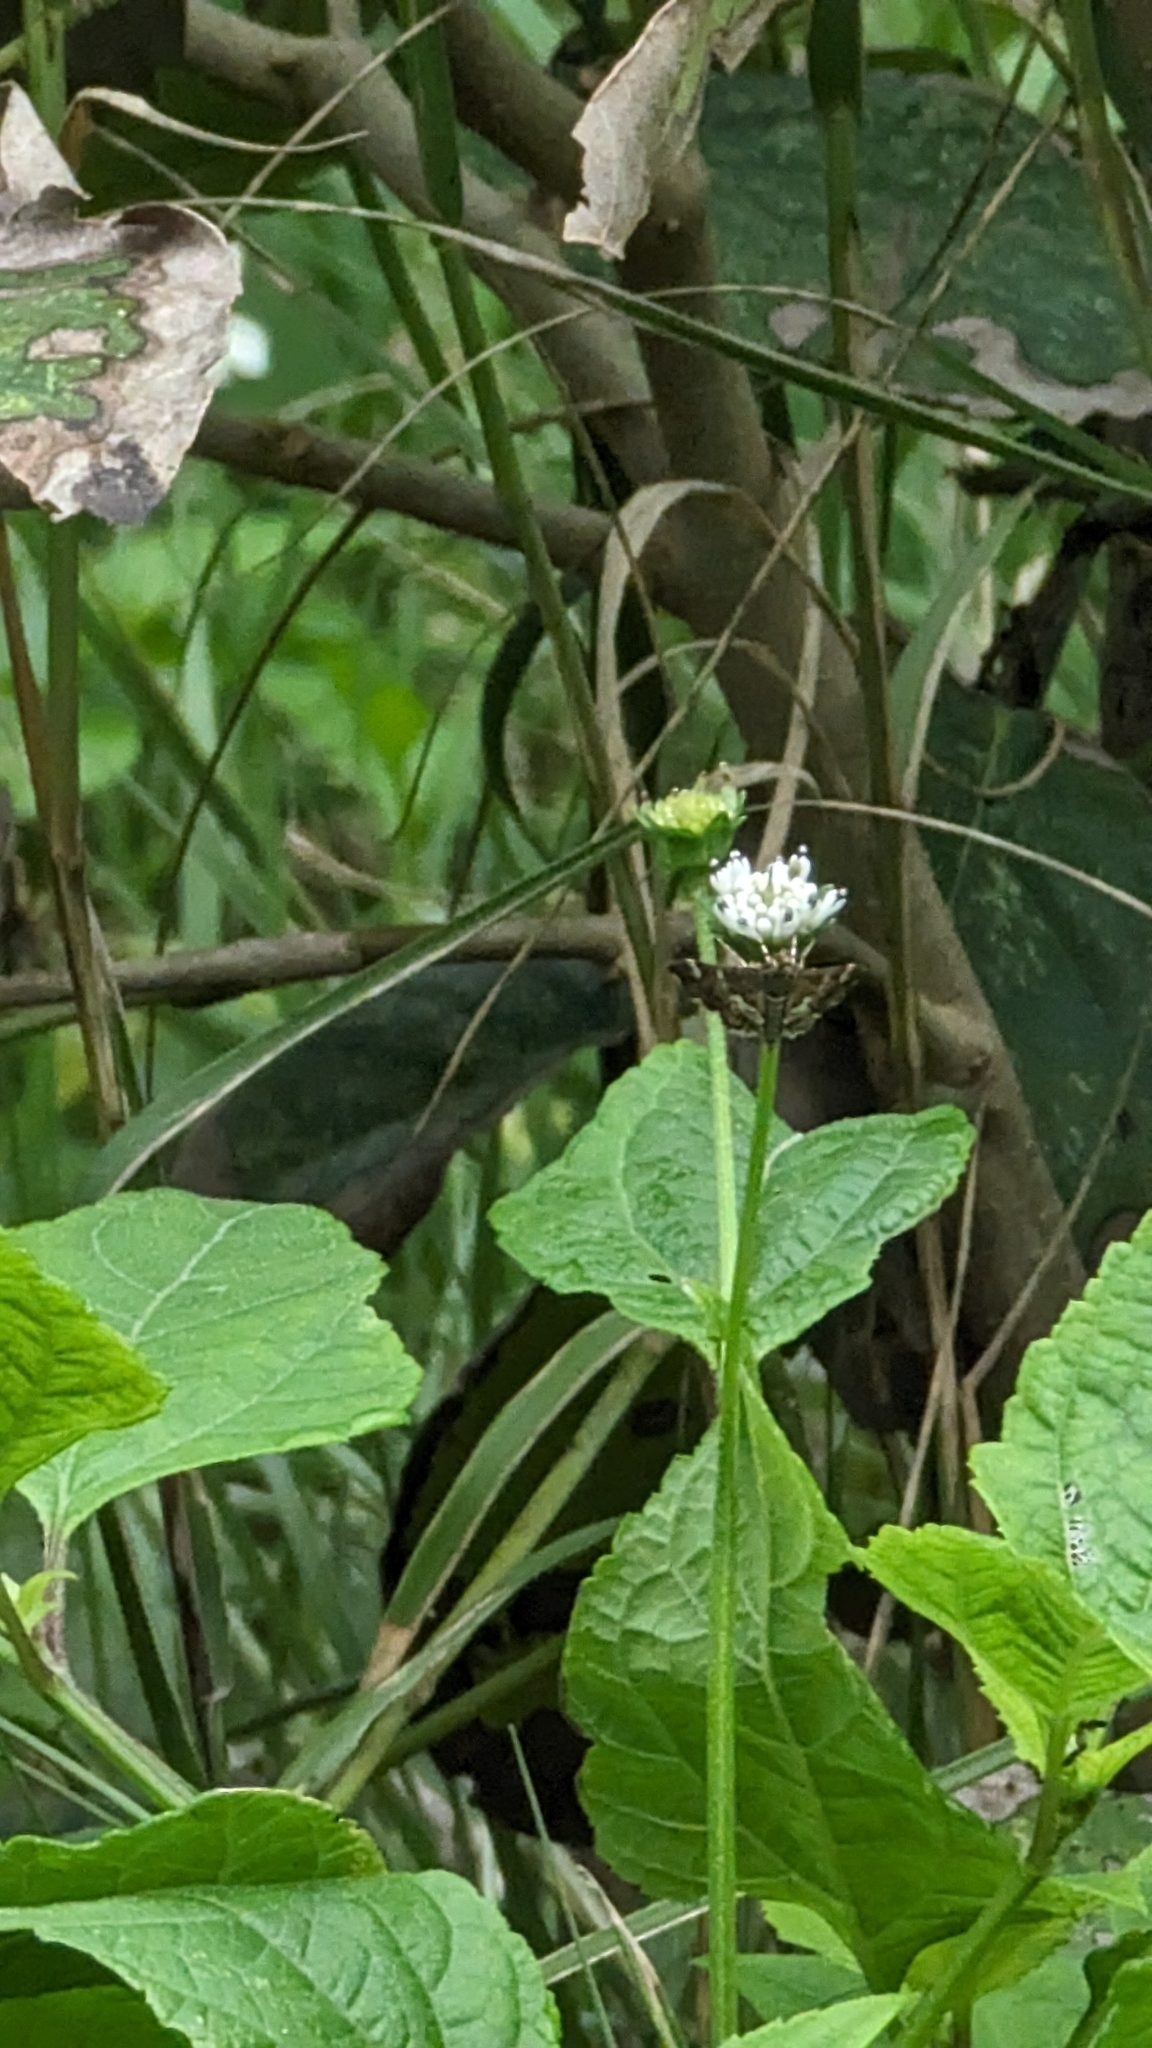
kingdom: Plantae
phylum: Tracheophyta
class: Magnoliopsida
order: Asterales
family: Asteraceae
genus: Melanthera
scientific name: Melanthera nivea
